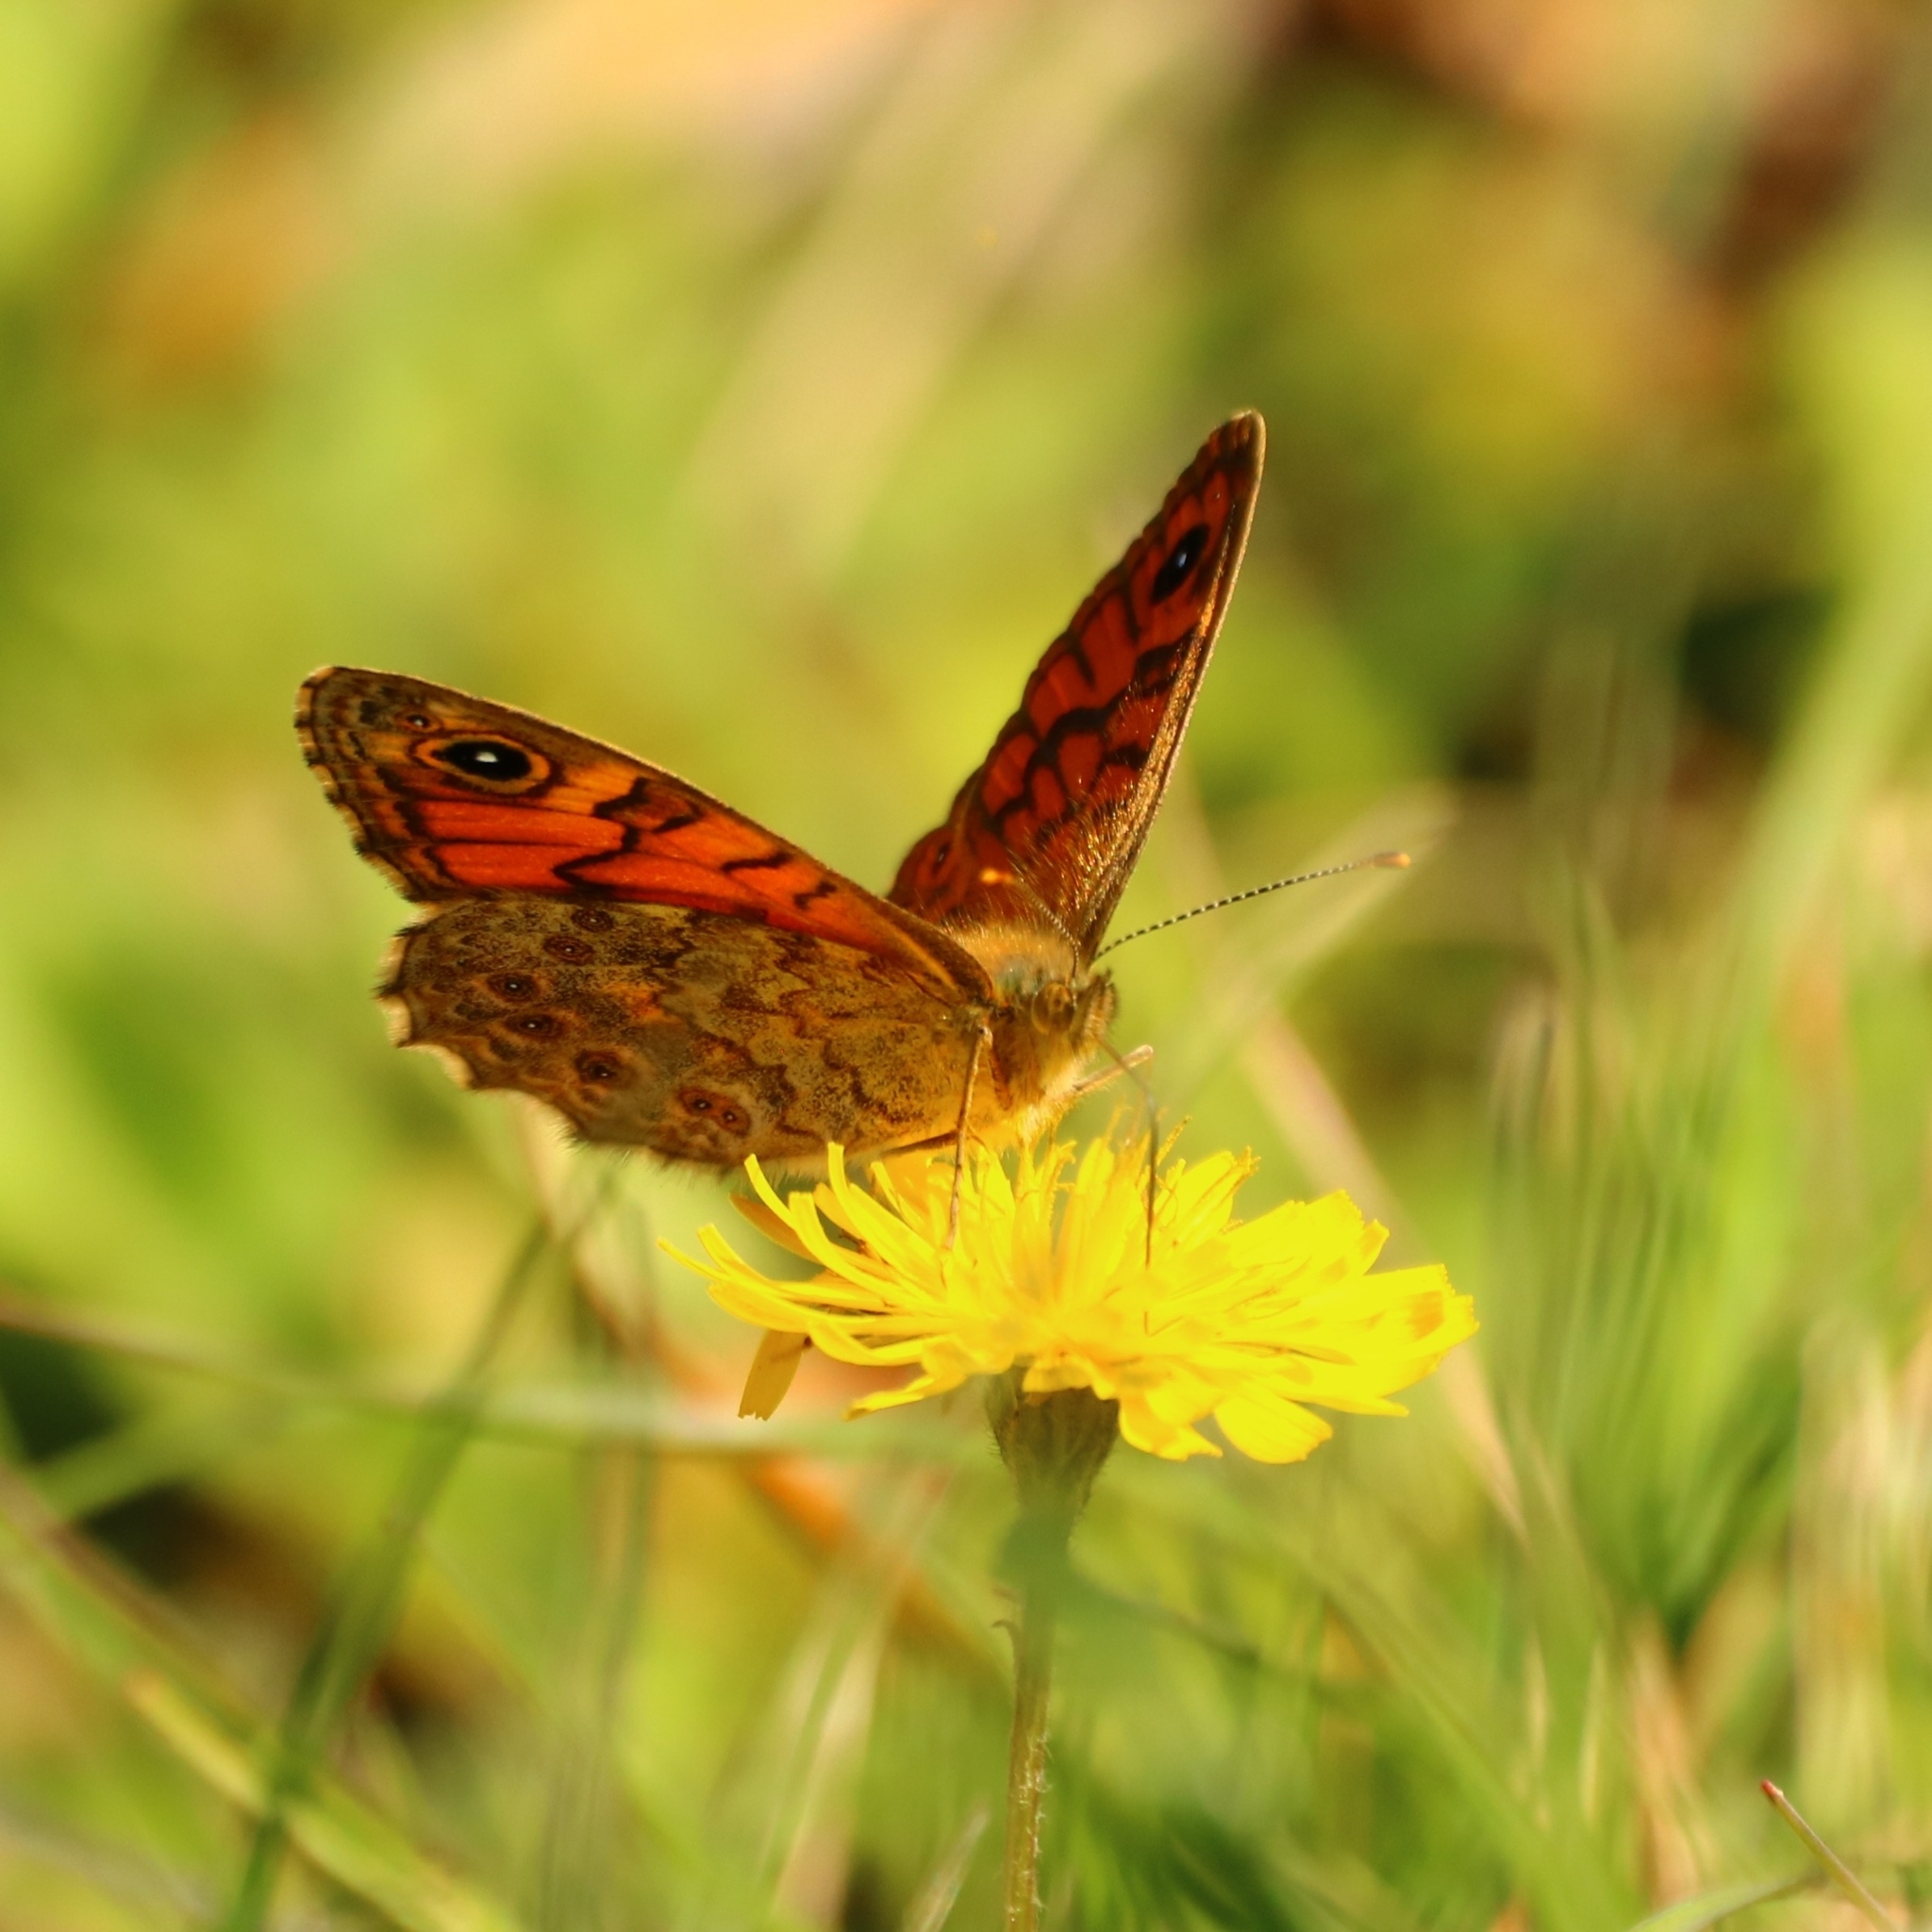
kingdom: Animalia
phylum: Arthropoda
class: Insecta
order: Lepidoptera
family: Nymphalidae
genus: Pararge
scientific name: Pararge Lasiommata megera
